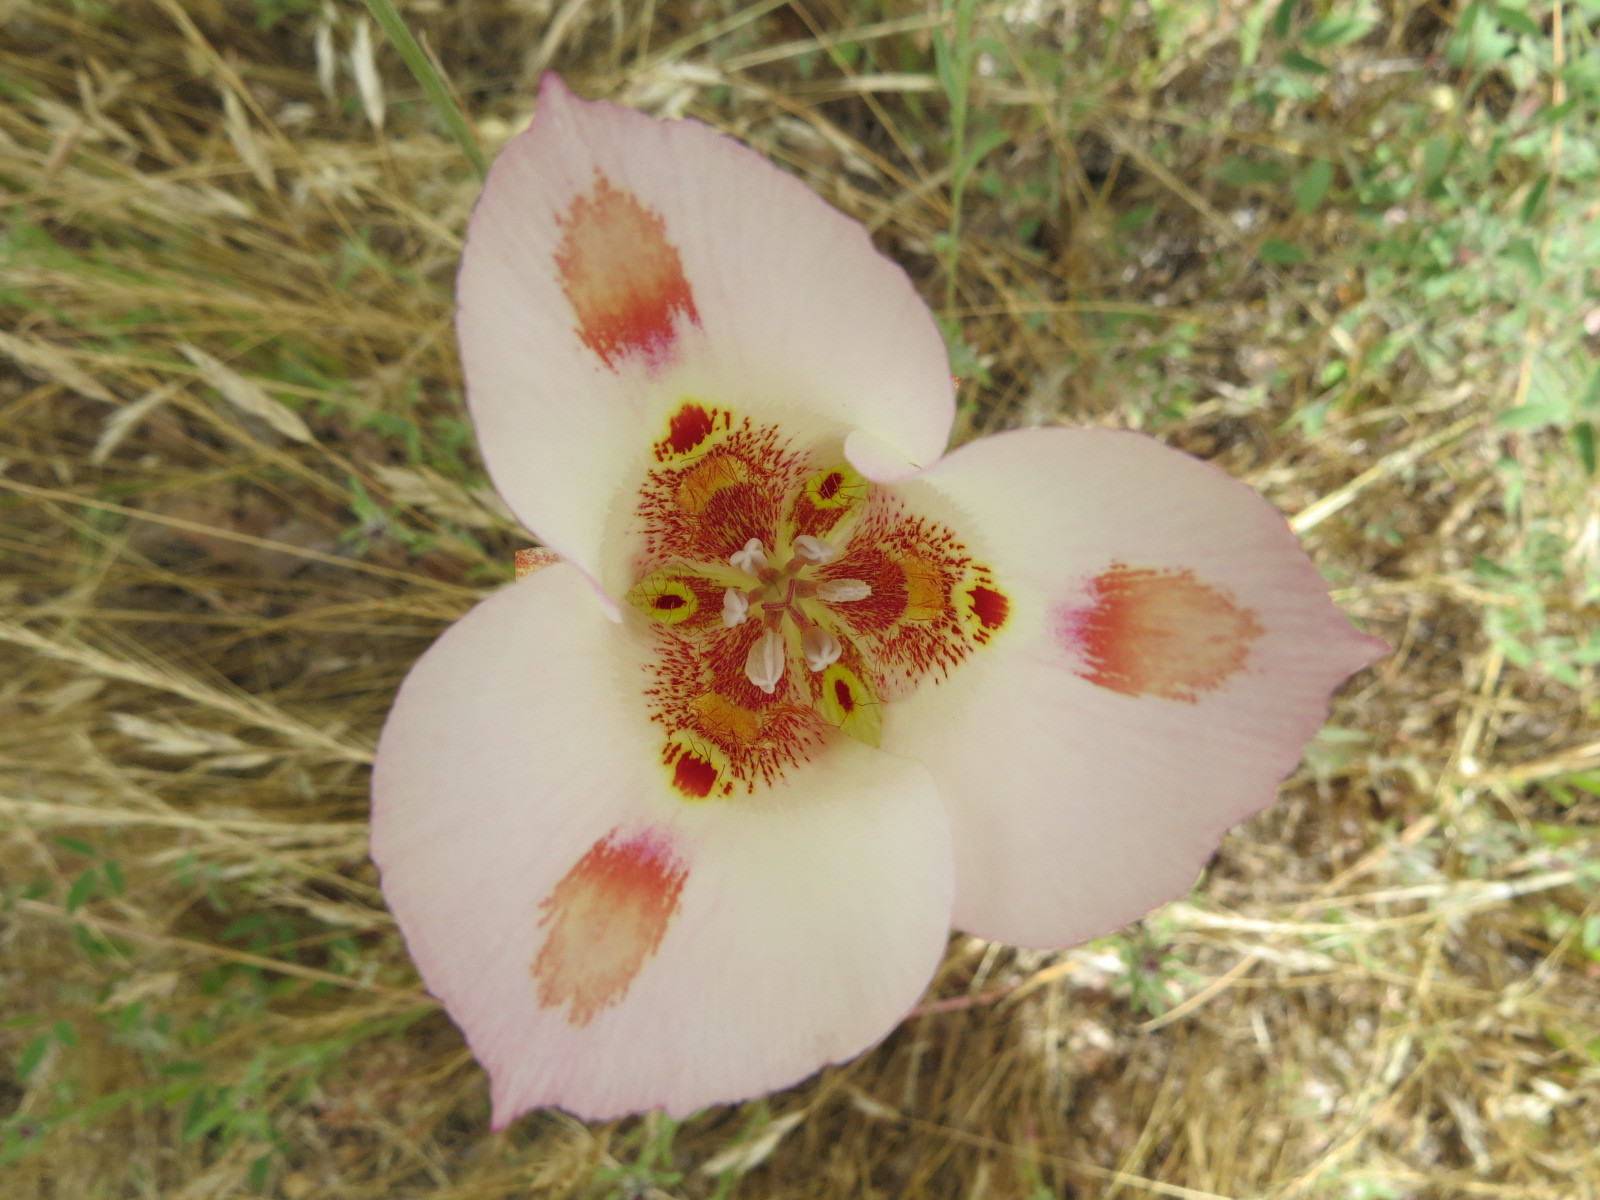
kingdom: Plantae
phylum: Tracheophyta
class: Liliopsida
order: Liliales
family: Liliaceae
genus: Calochortus
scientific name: Calochortus venustus
